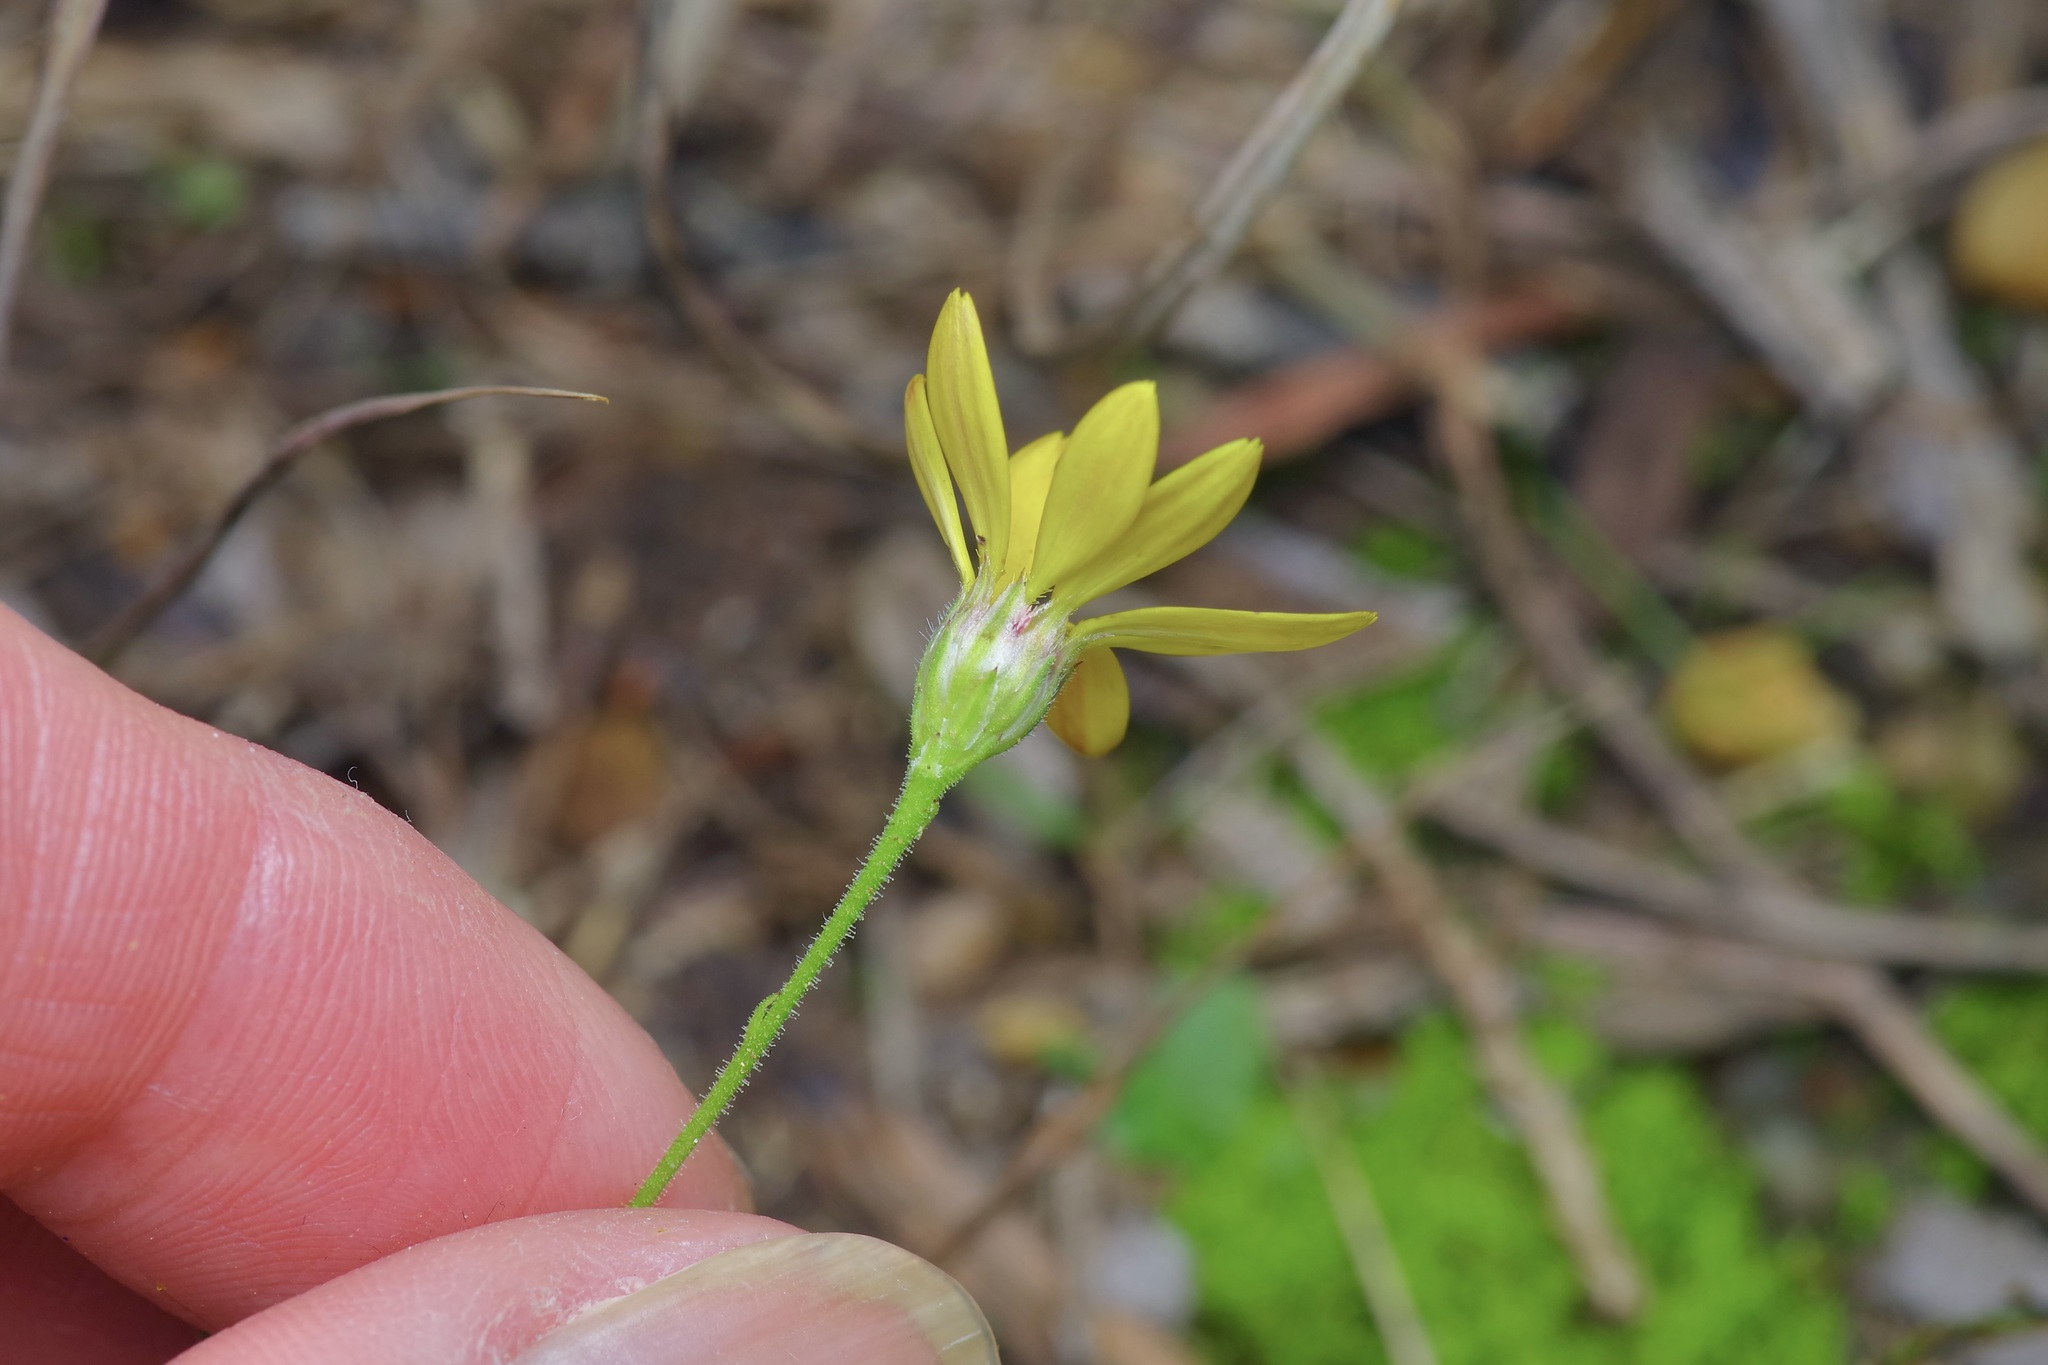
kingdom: Plantae
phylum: Tracheophyta
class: Magnoliopsida
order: Asterales
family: Asteraceae
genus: Croptilon
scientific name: Croptilon divaricatum
